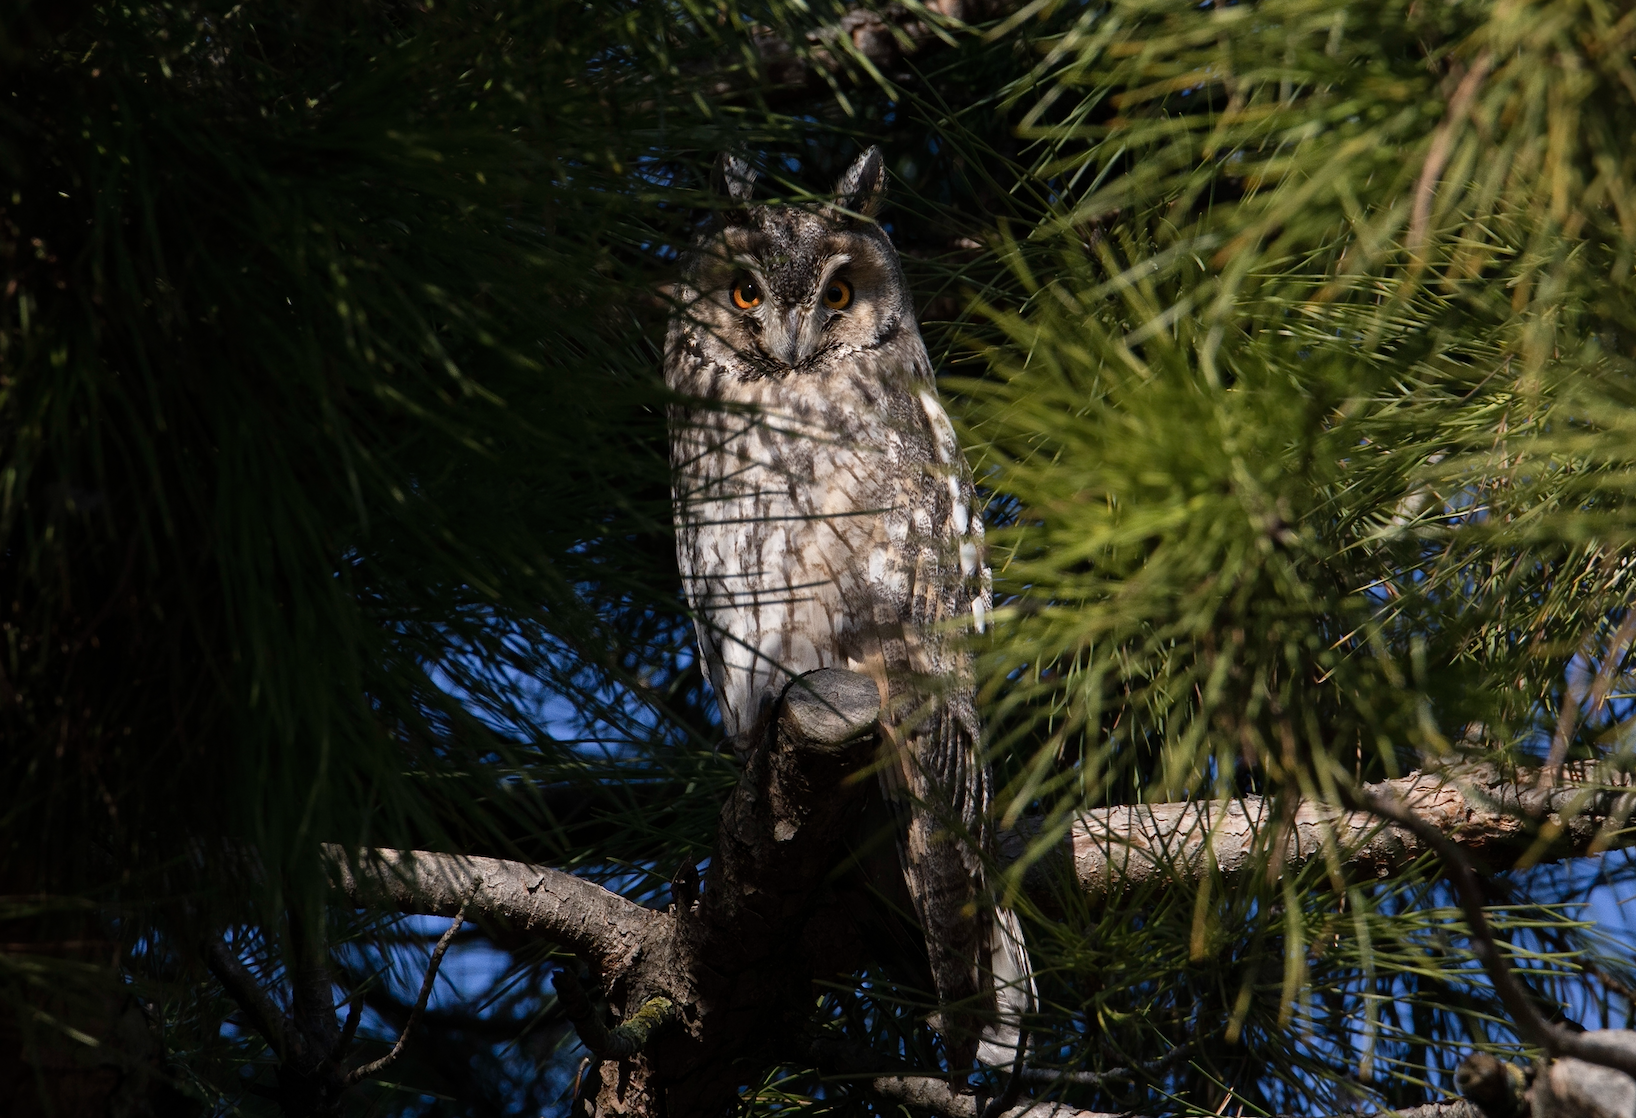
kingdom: Animalia
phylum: Chordata
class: Aves
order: Strigiformes
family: Strigidae
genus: Asio
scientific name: Asio otus
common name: Long-eared owl
